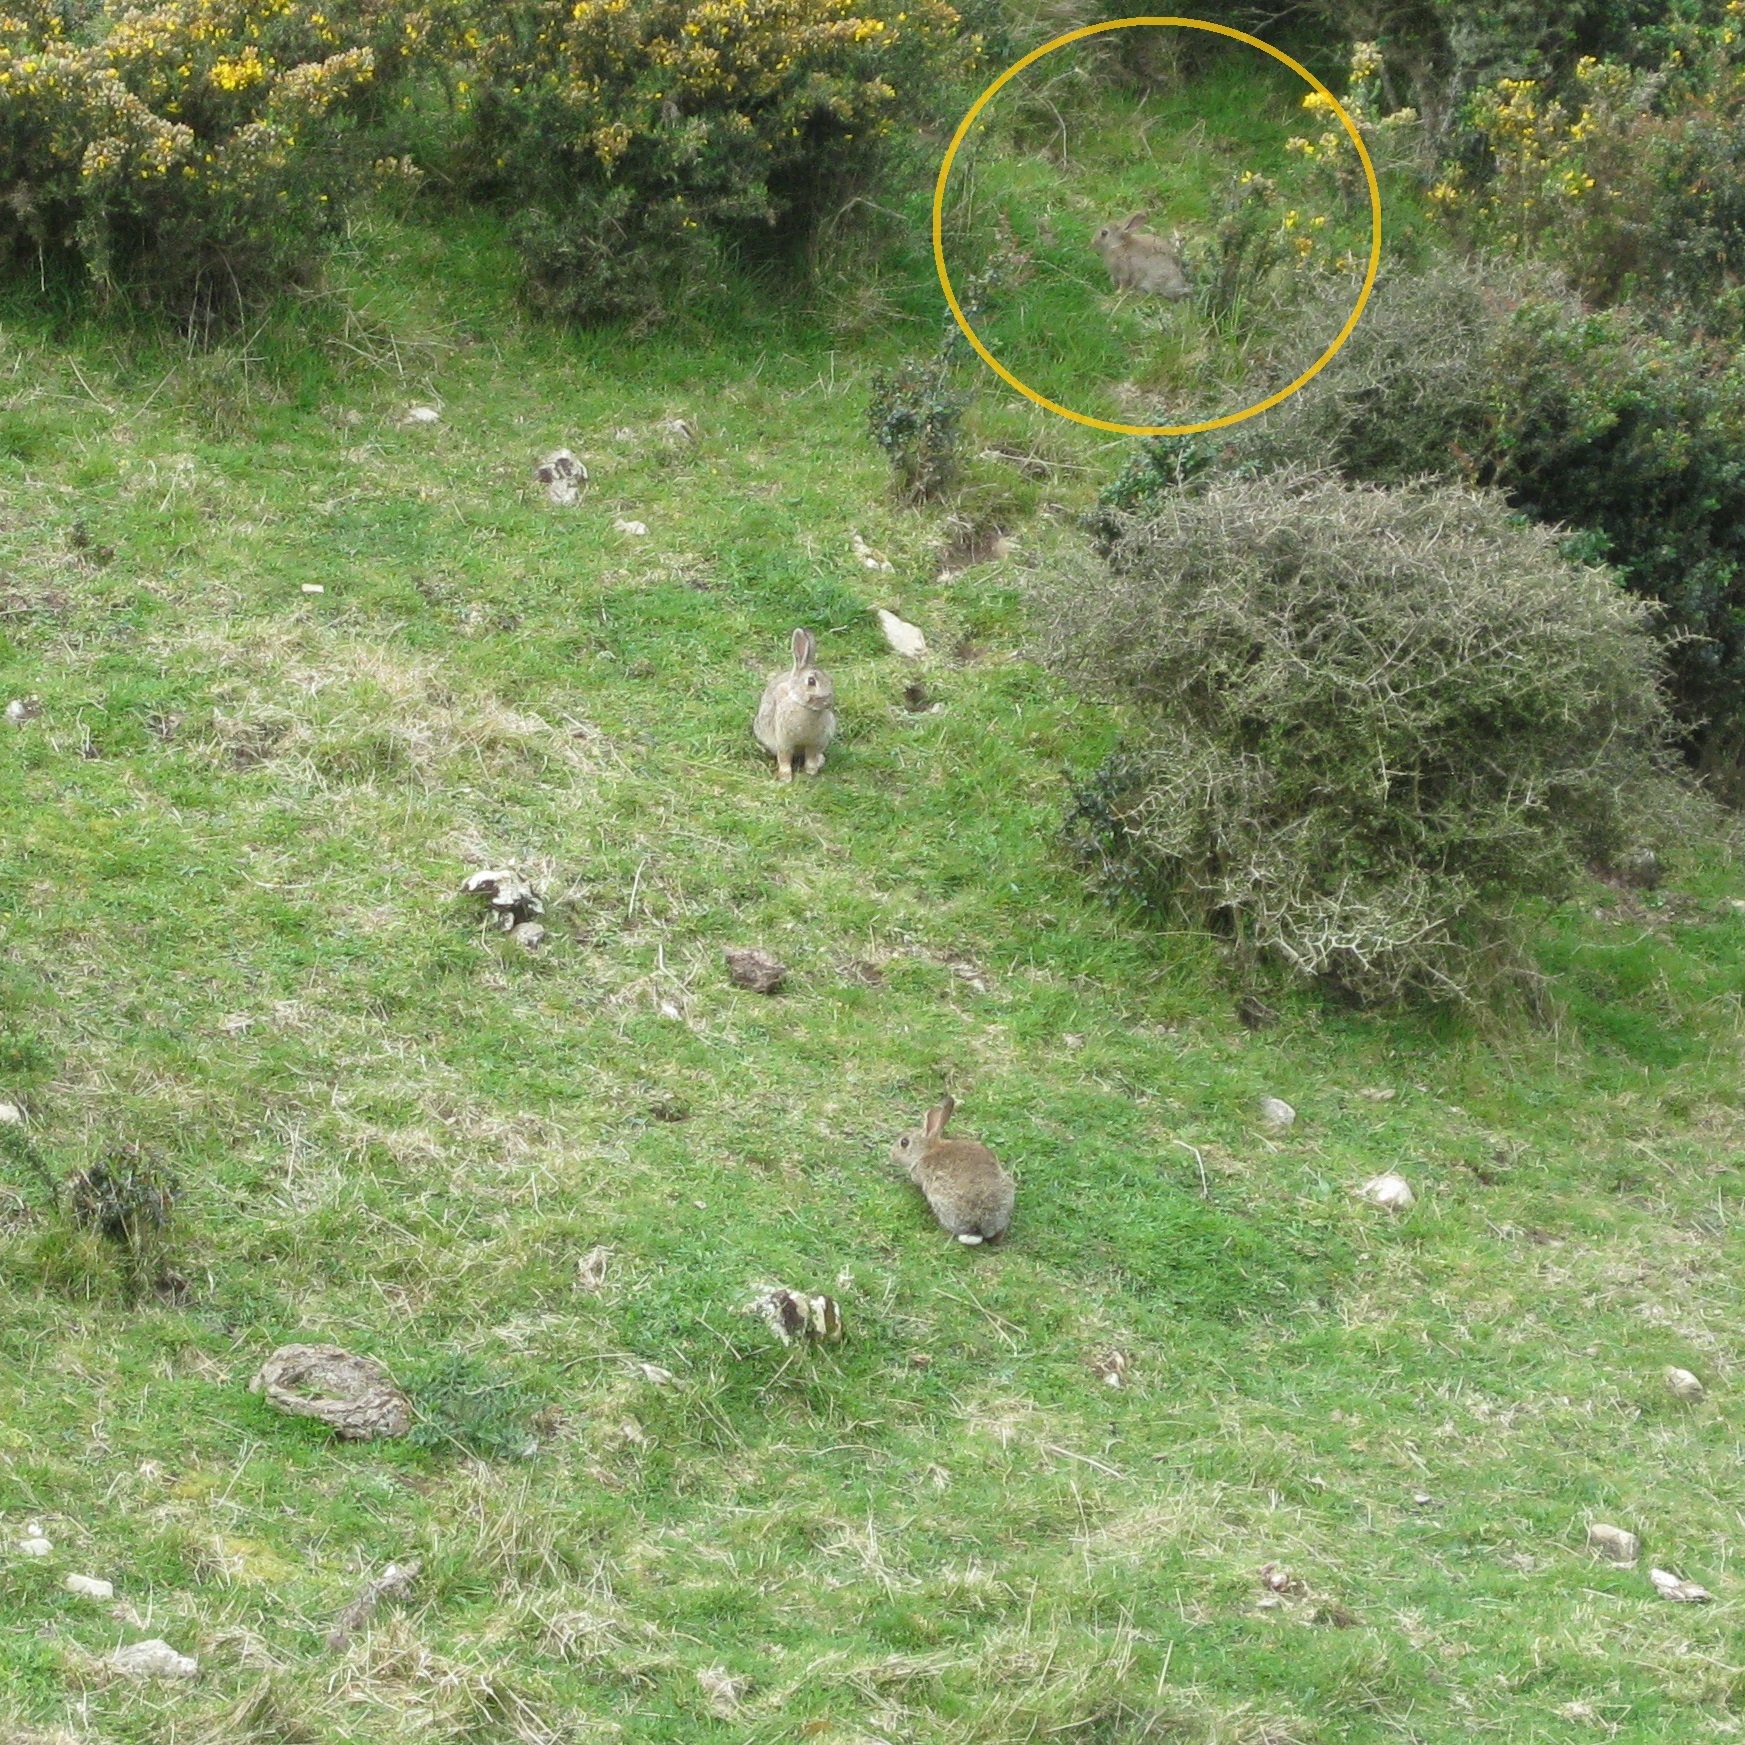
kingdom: Animalia
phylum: Chordata
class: Mammalia
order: Lagomorpha
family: Leporidae
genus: Oryctolagus
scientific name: Oryctolagus cuniculus
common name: European rabbit
